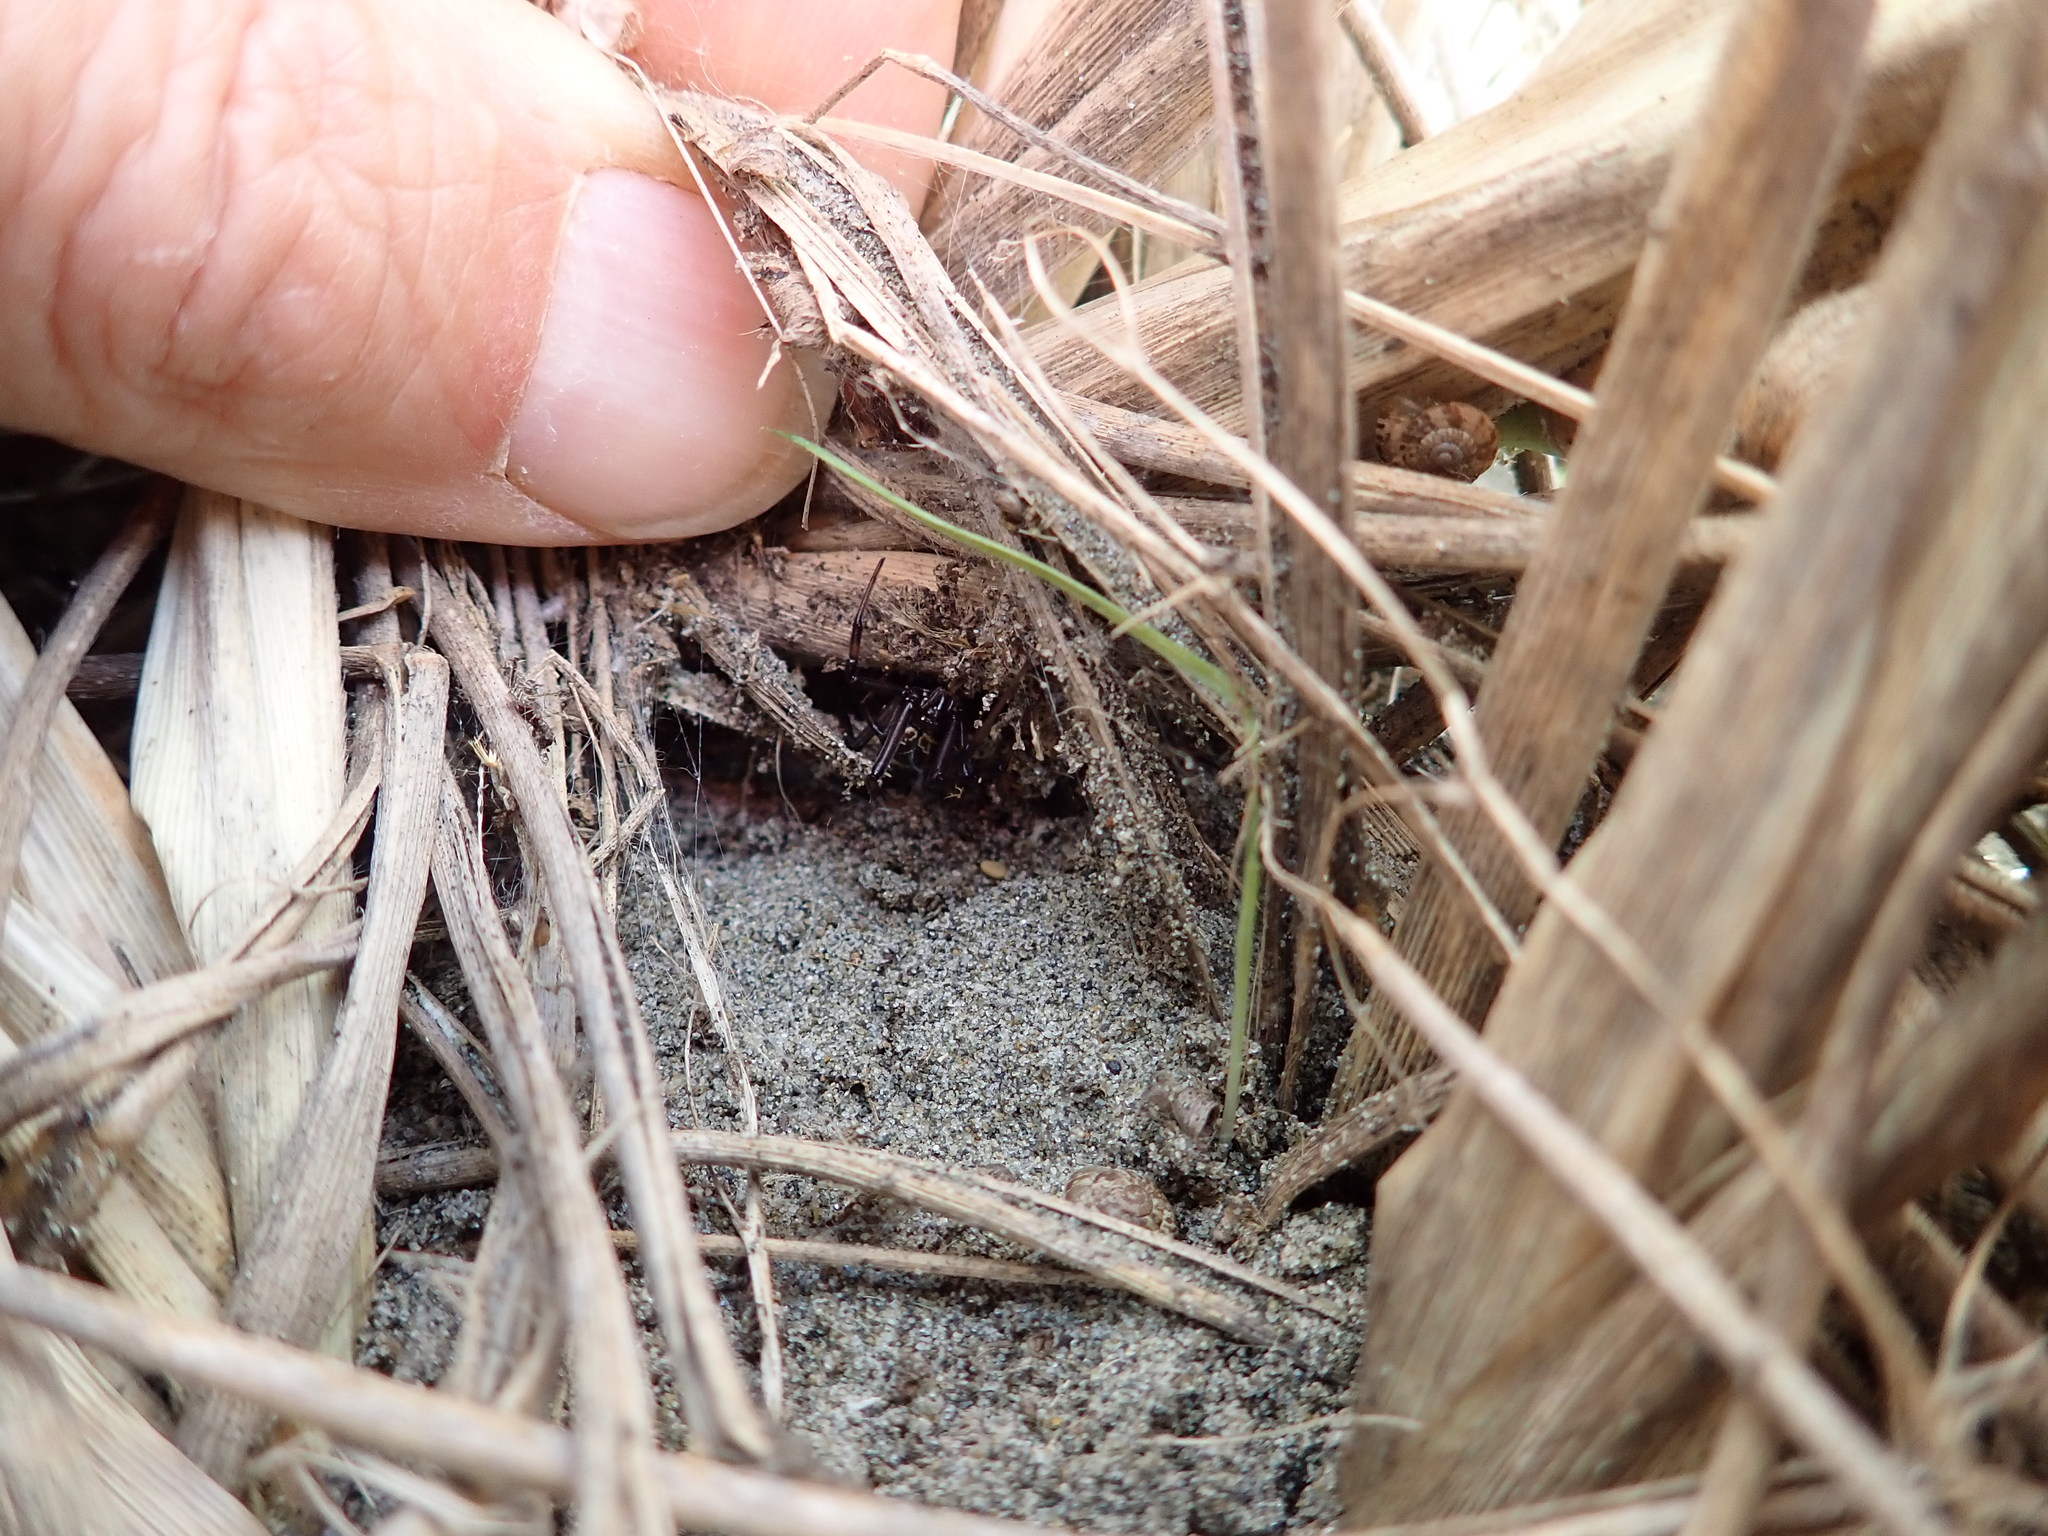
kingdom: Animalia
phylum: Arthropoda
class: Arachnida
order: Araneae
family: Theridiidae
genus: Latrodectus
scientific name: Latrodectus katipo
